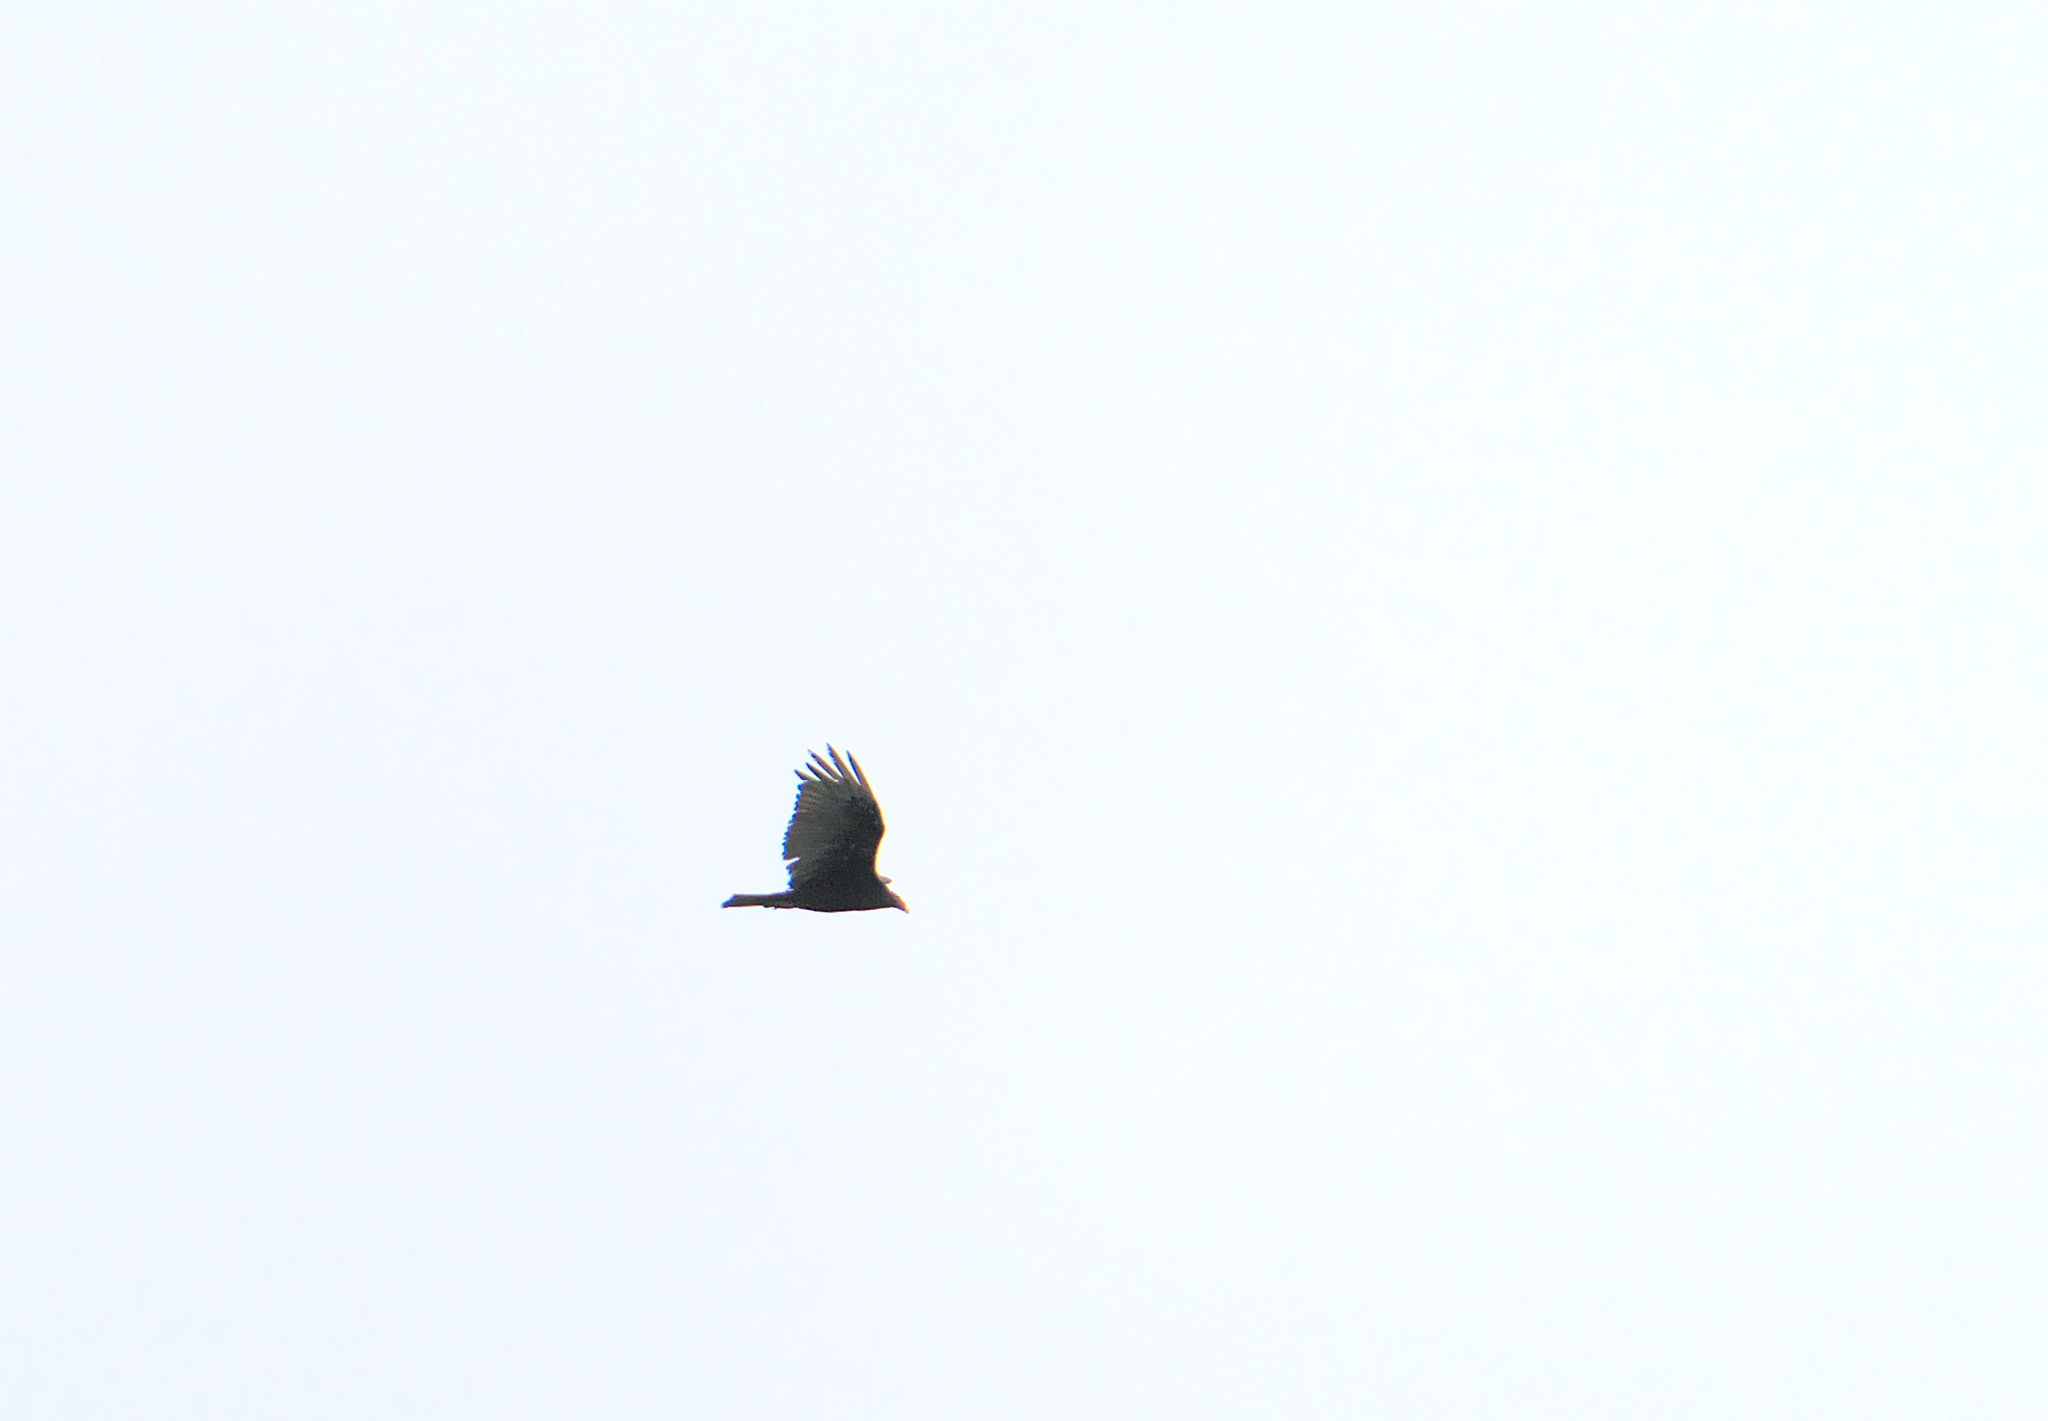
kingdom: Animalia
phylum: Chordata
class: Aves
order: Accipitriformes
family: Cathartidae
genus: Cathartes
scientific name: Cathartes aura
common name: Turkey vulture
